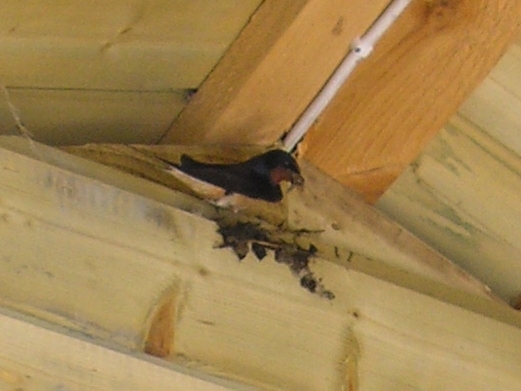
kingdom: Animalia
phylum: Chordata
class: Aves
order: Passeriformes
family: Hirundinidae
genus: Hirundo
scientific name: Hirundo rustica
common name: Barn swallow
